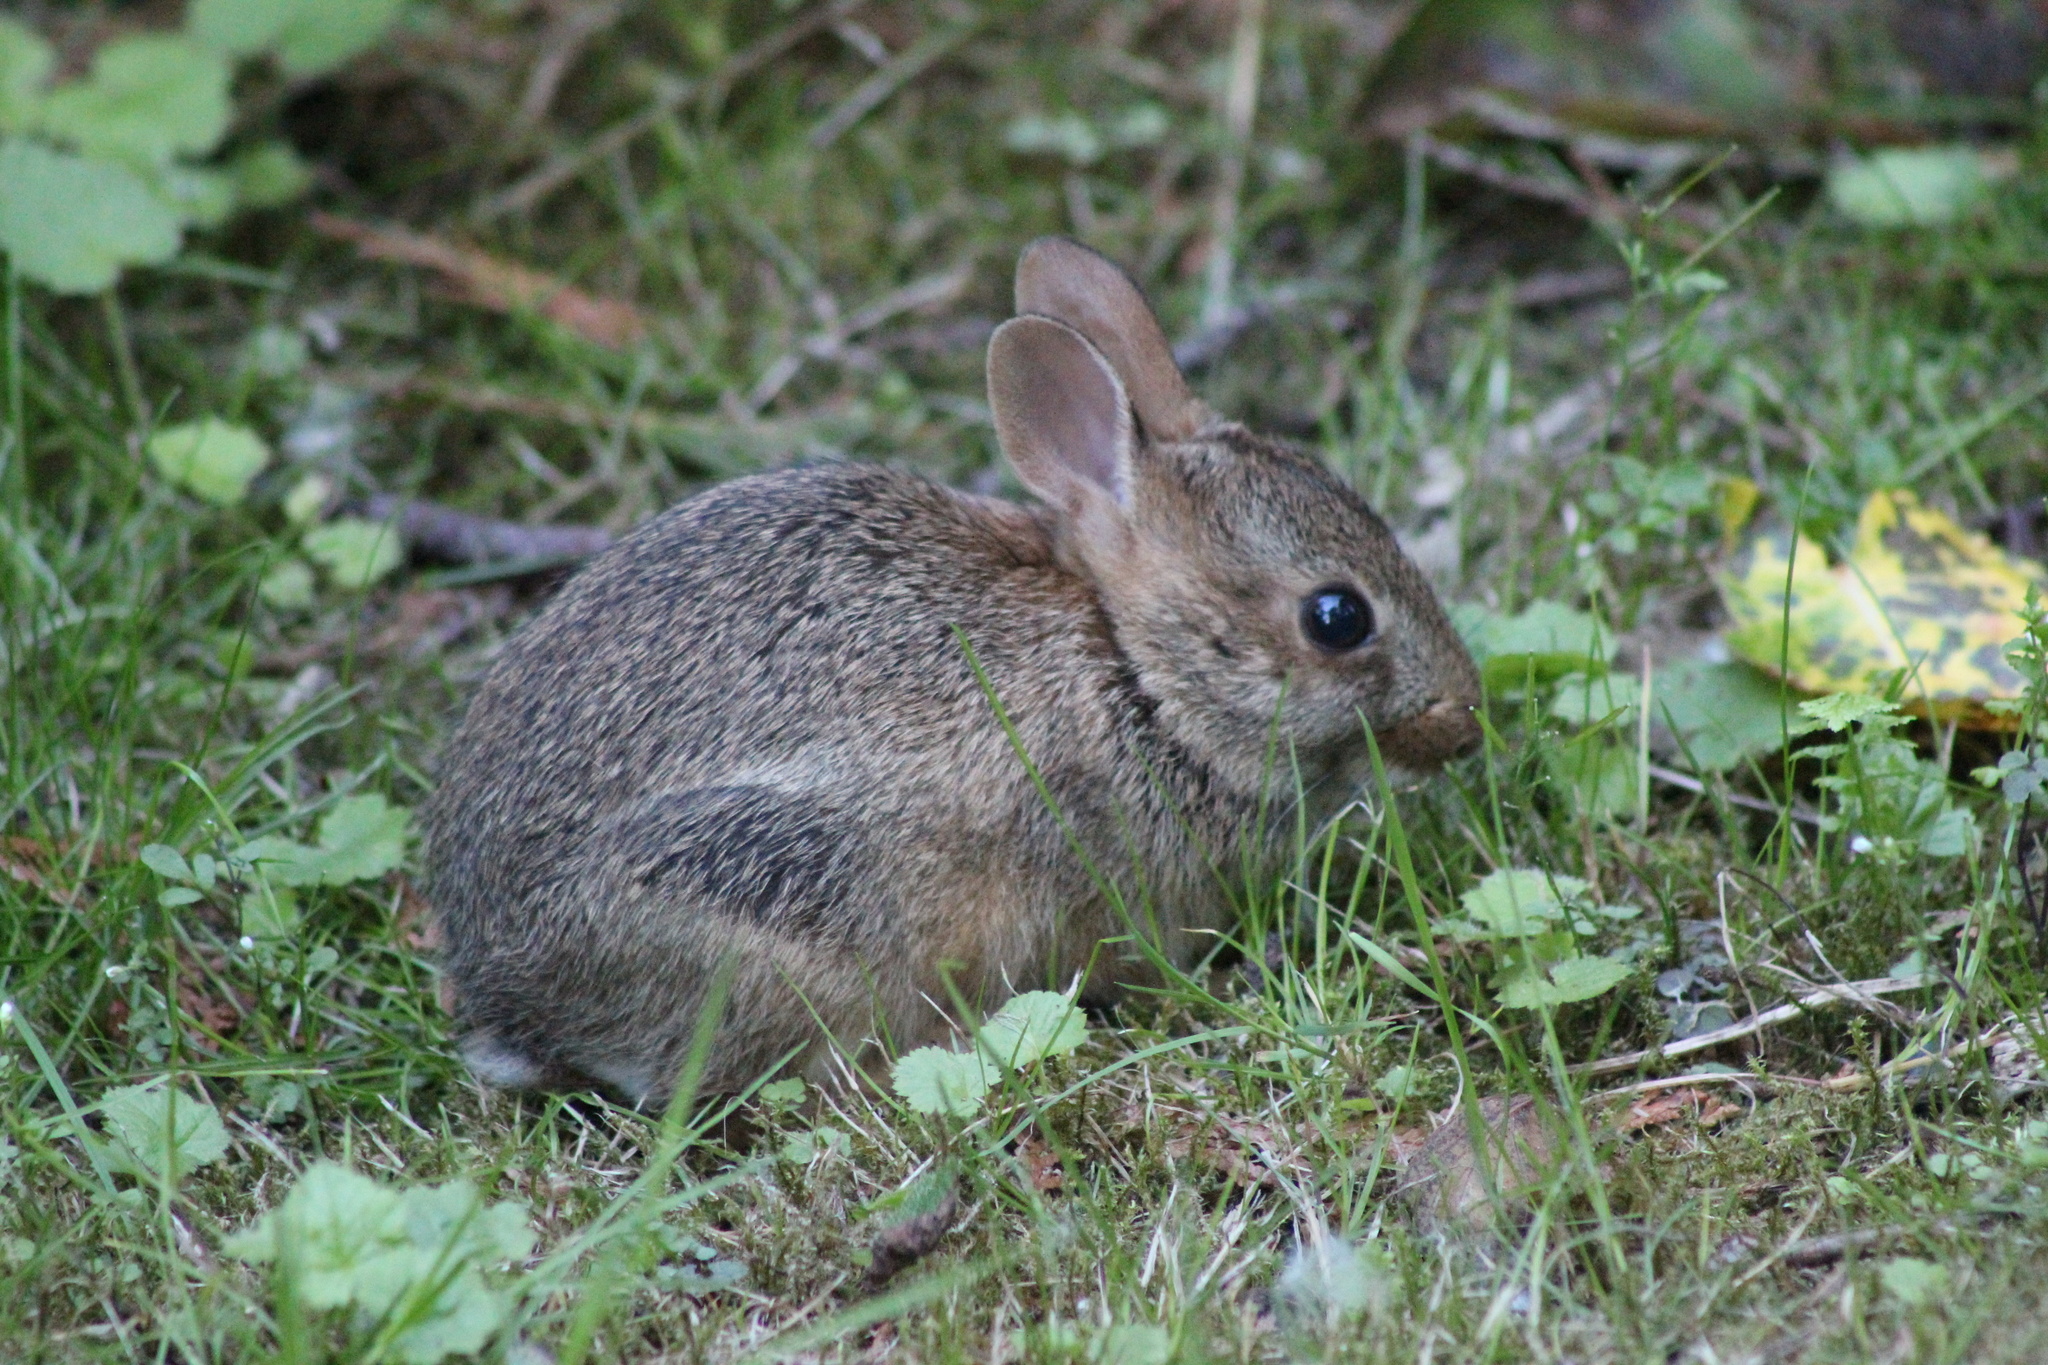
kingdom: Animalia
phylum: Chordata
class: Mammalia
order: Lagomorpha
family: Leporidae
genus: Sylvilagus
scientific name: Sylvilagus floridanus
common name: Eastern cottontail
